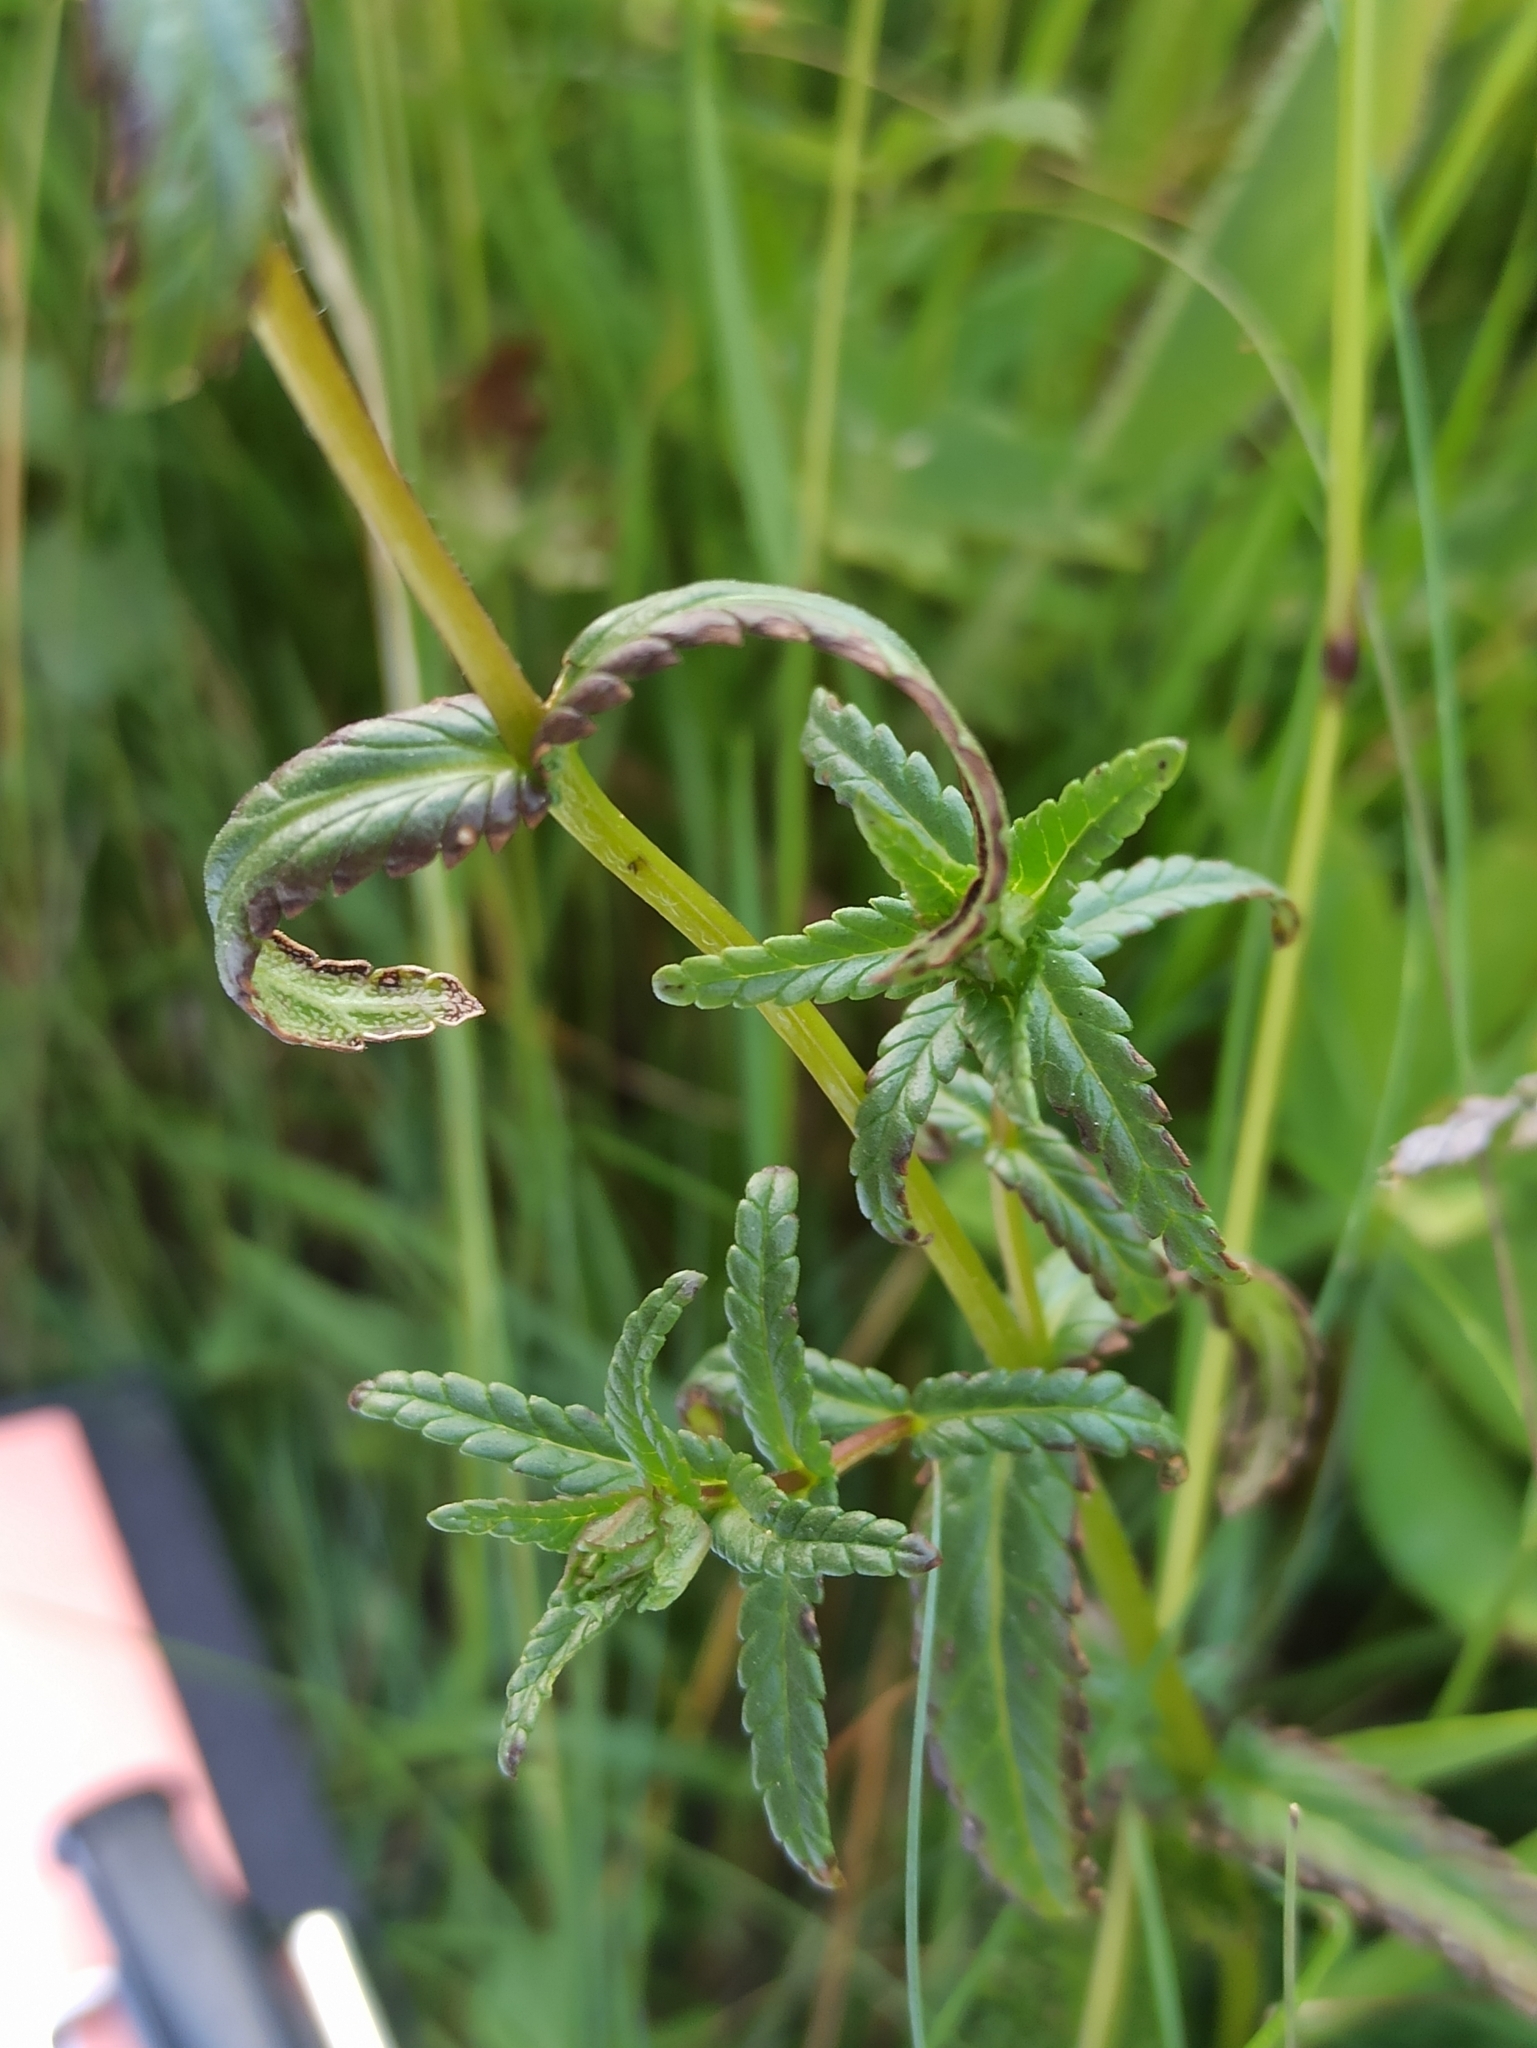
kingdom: Plantae
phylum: Tracheophyta
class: Magnoliopsida
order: Lamiales
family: Orobanchaceae
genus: Rhinanthus
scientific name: Rhinanthus glacialis
